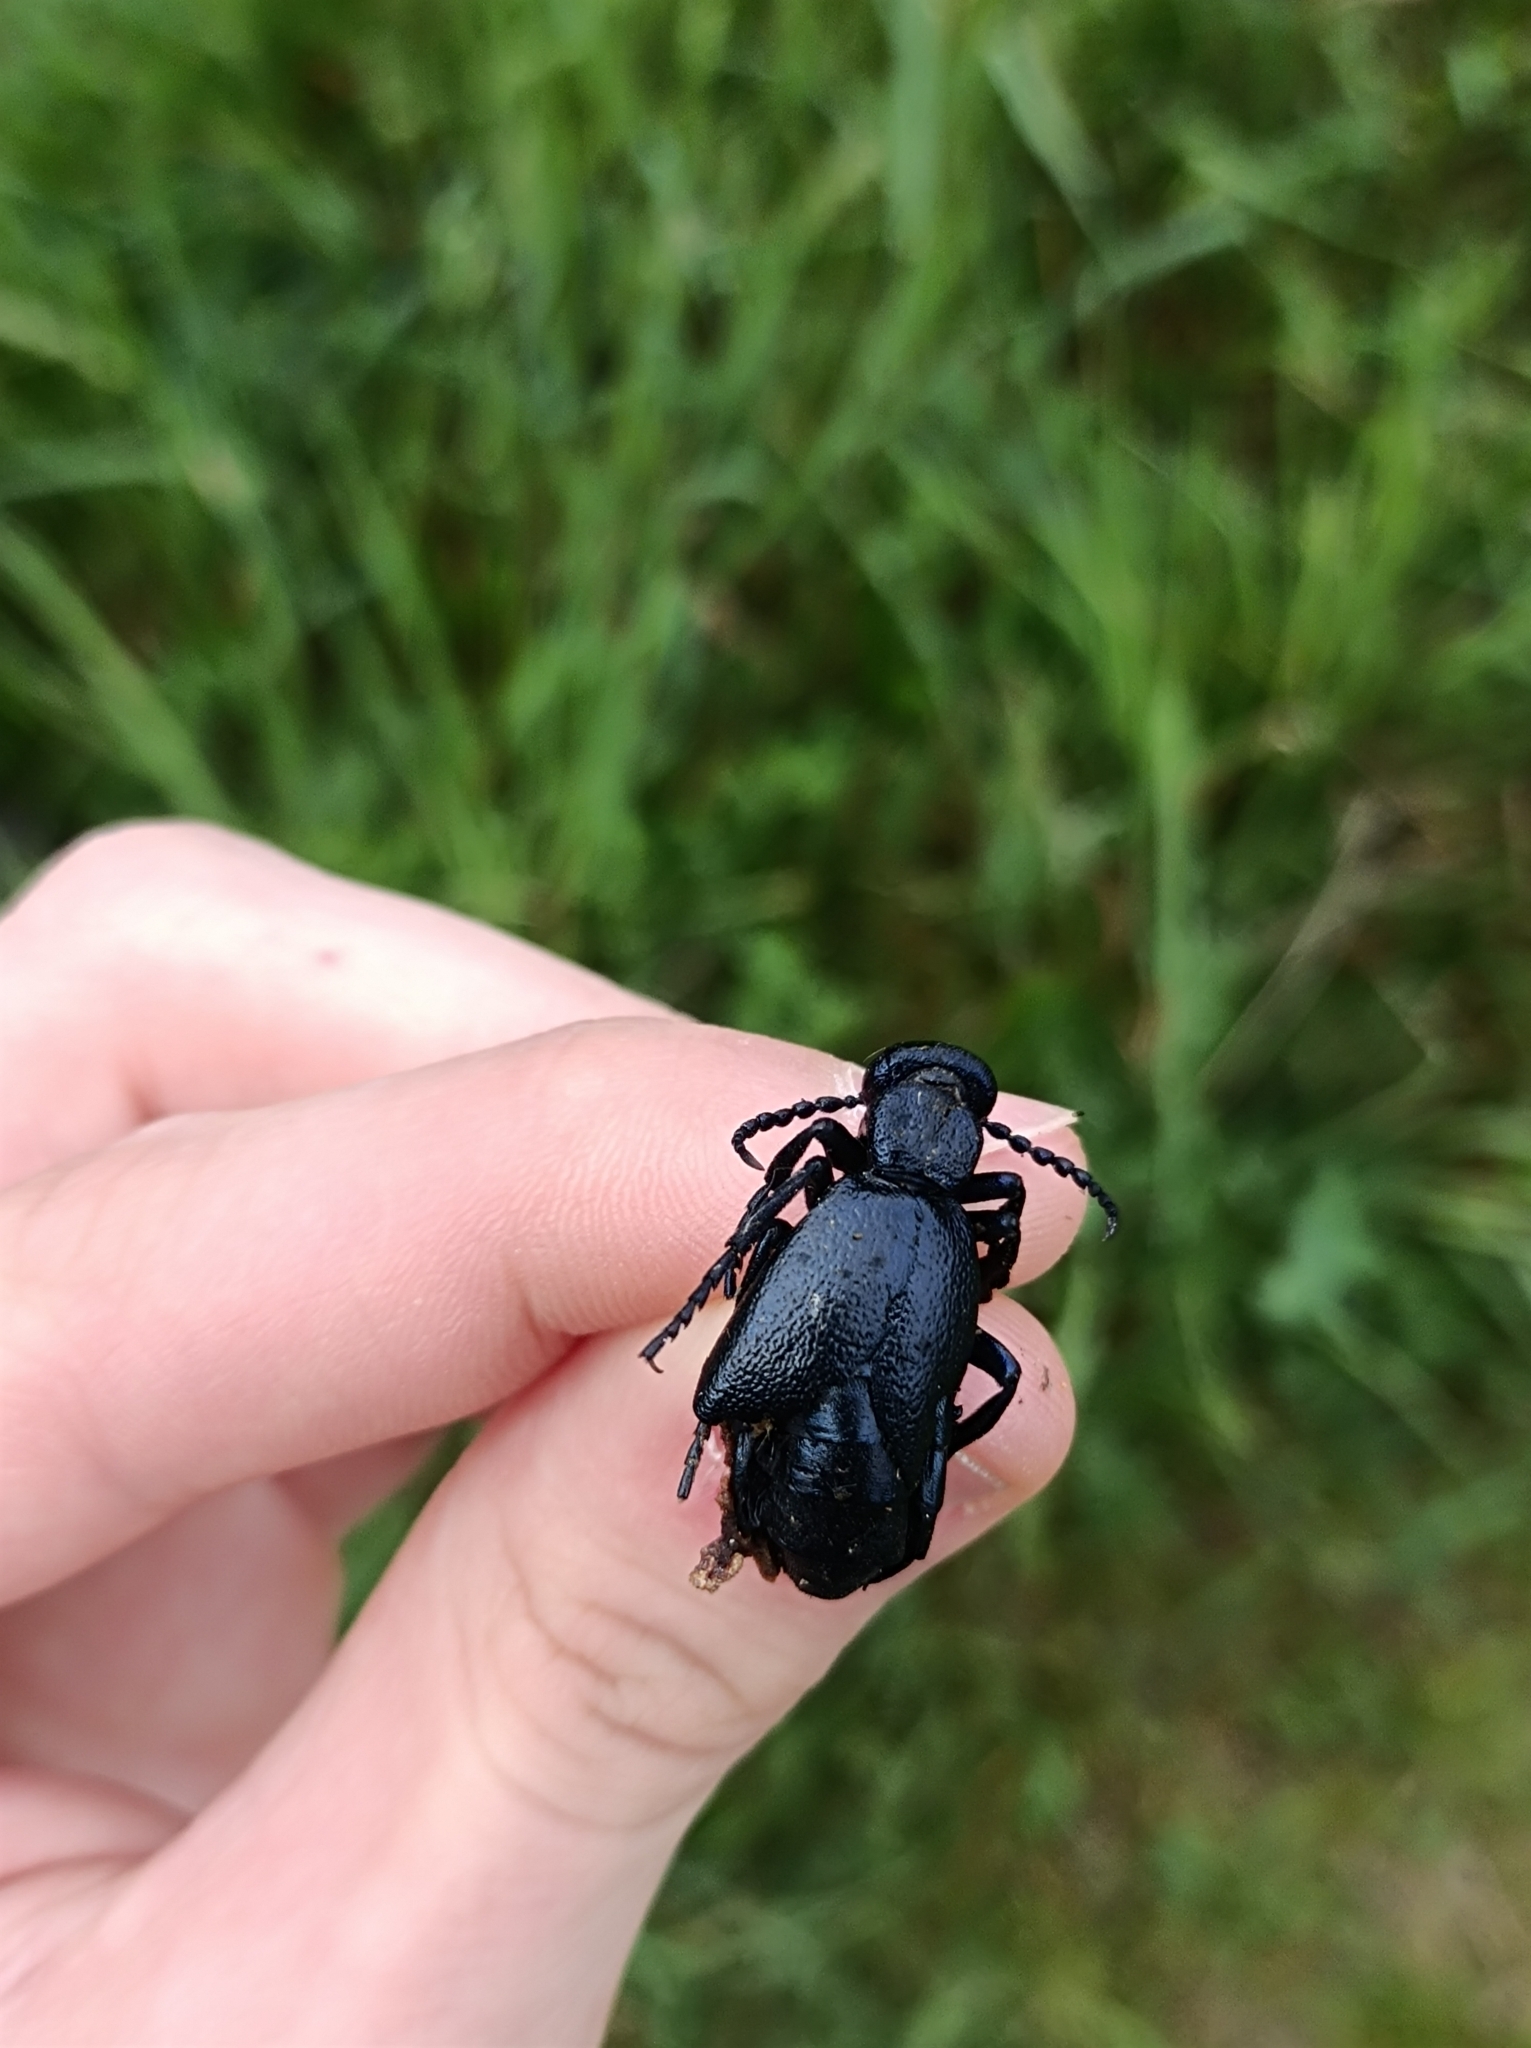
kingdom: Animalia
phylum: Arthropoda
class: Insecta
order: Coleoptera
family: Meloidae
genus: Meloe
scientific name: Meloe proscarabaeus
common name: Black oil-beetle
